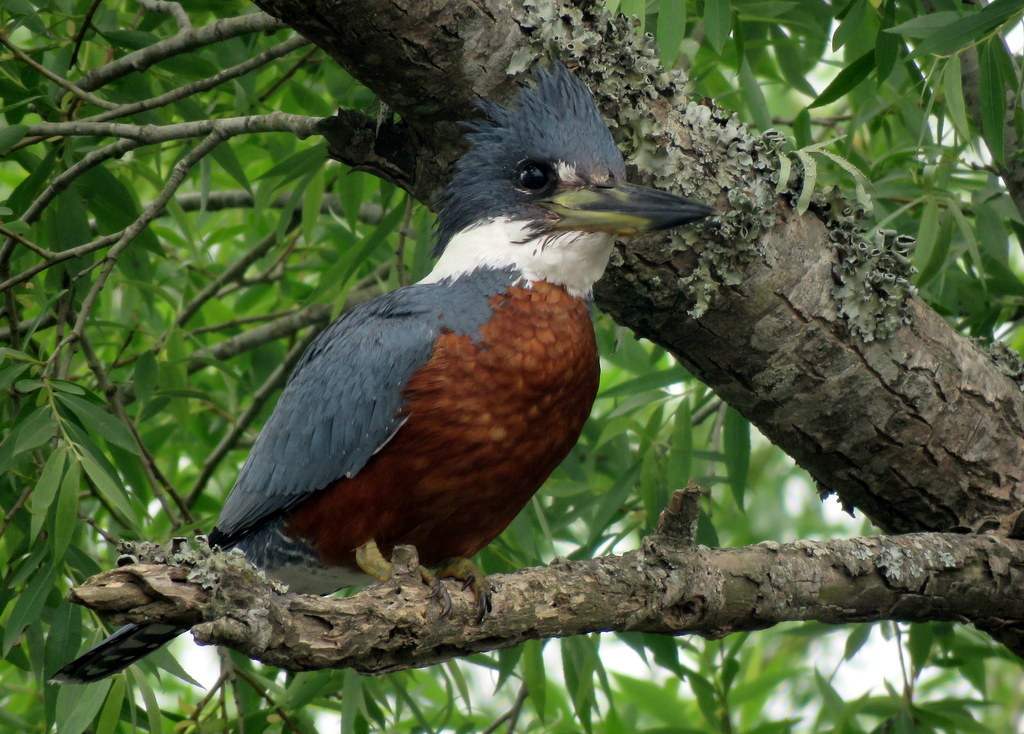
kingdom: Animalia
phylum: Chordata
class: Aves
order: Coraciiformes
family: Alcedinidae
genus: Megaceryle
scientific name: Megaceryle torquata
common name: Ringed kingfisher
